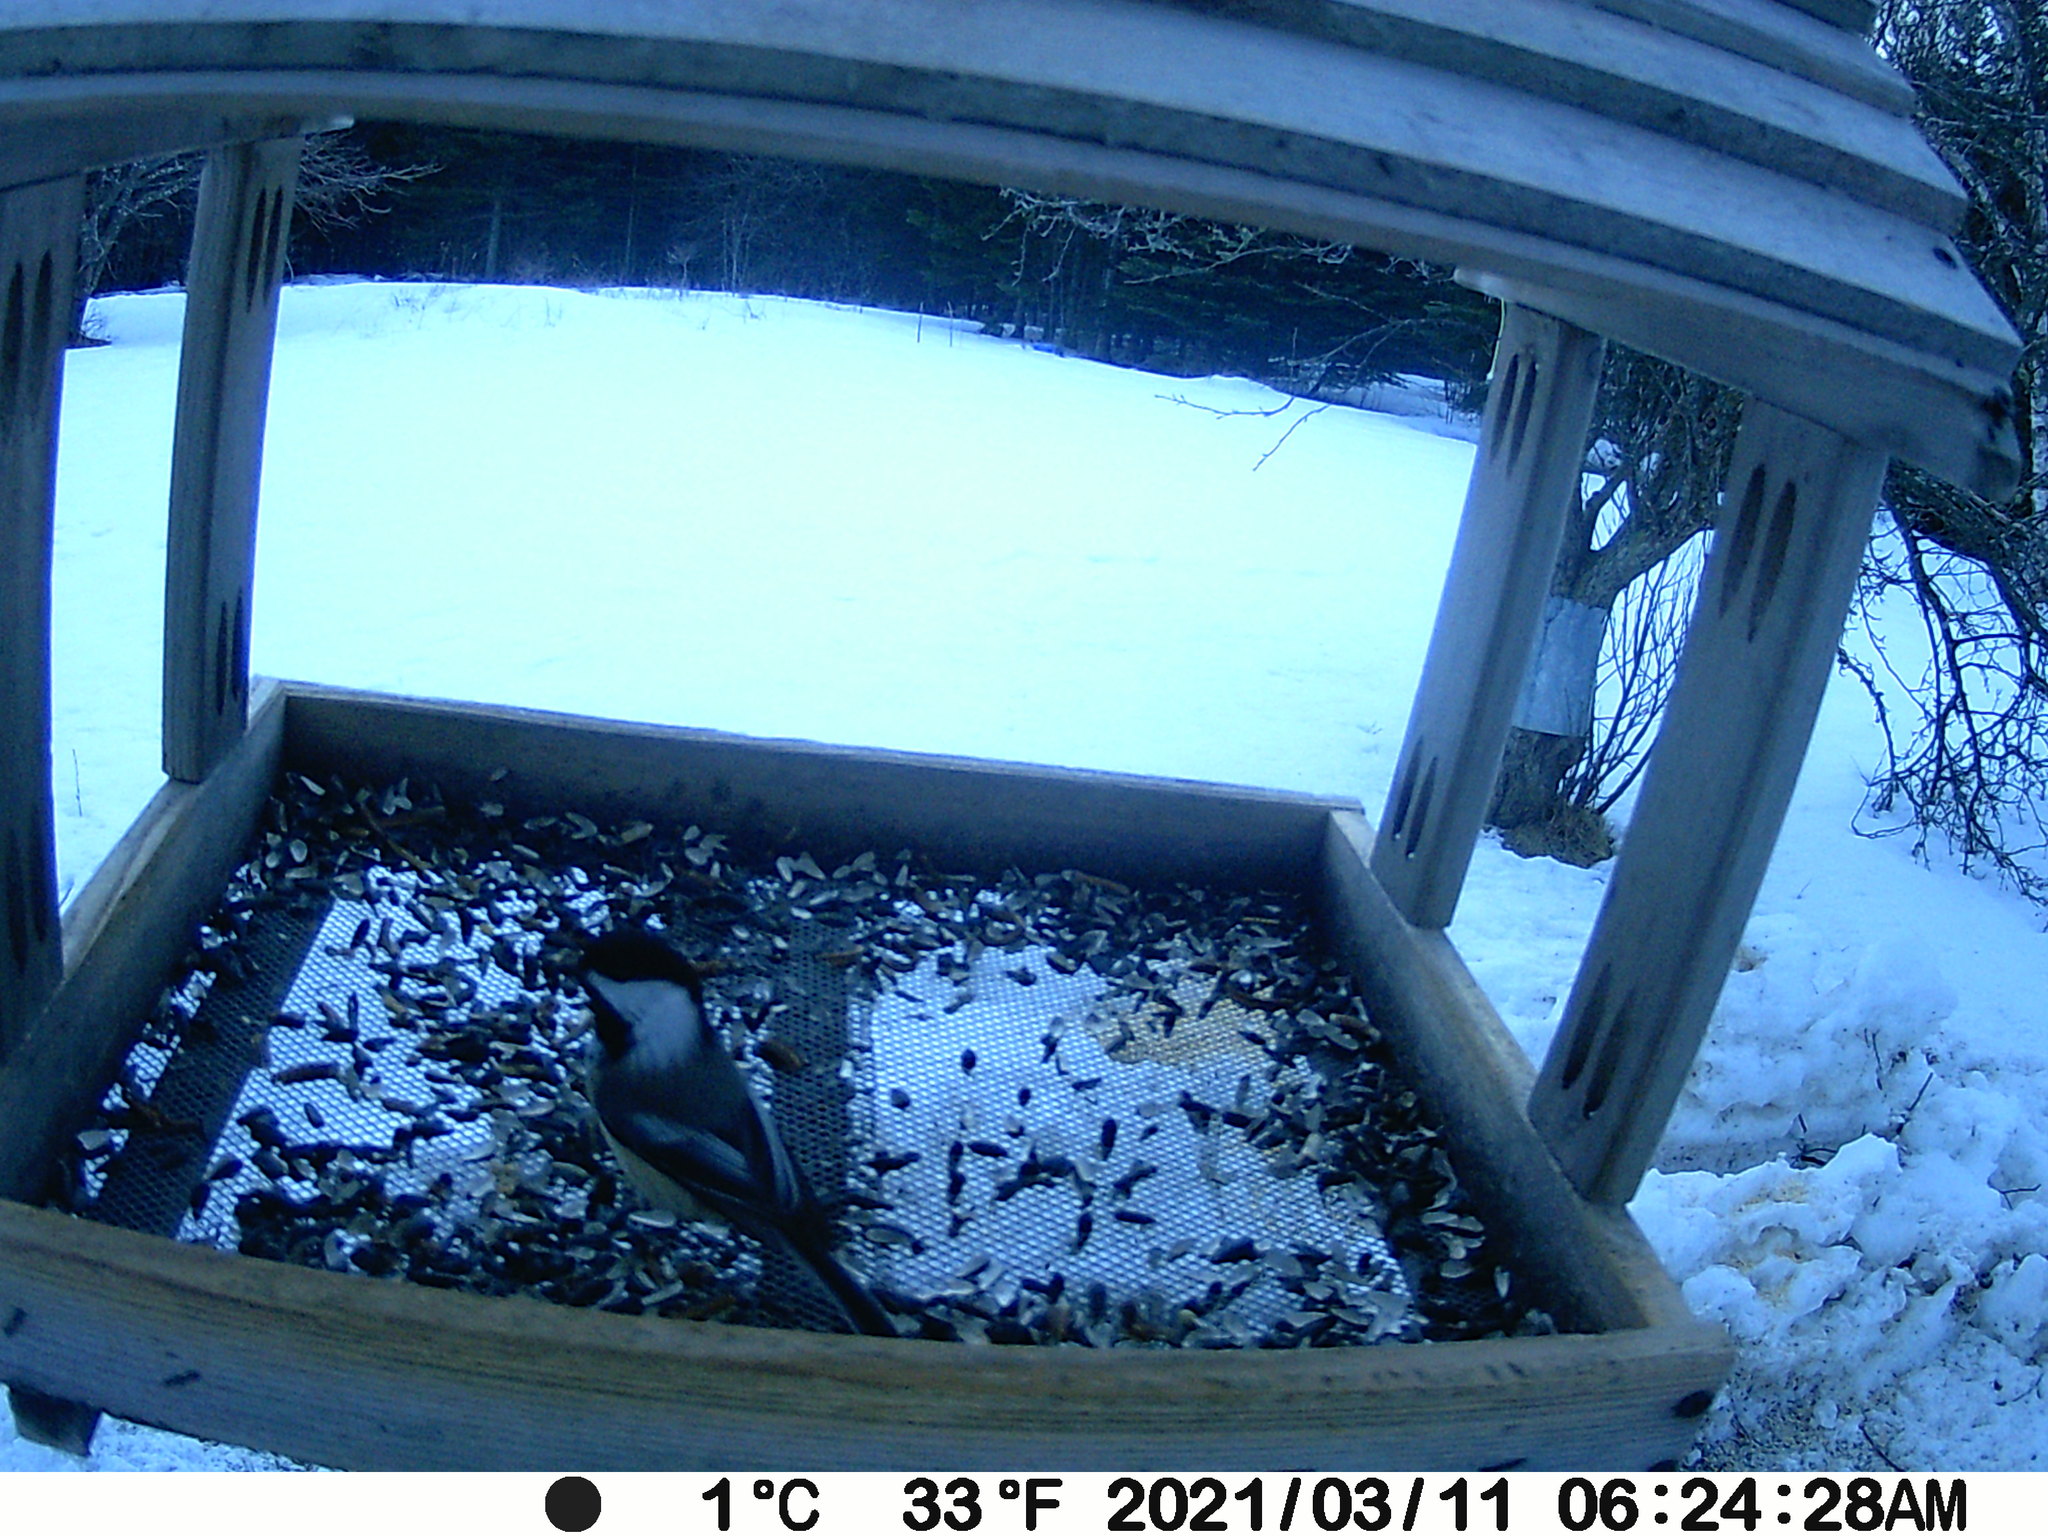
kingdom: Animalia
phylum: Chordata
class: Aves
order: Passeriformes
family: Paridae
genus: Poecile
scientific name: Poecile atricapillus
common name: Black-capped chickadee
